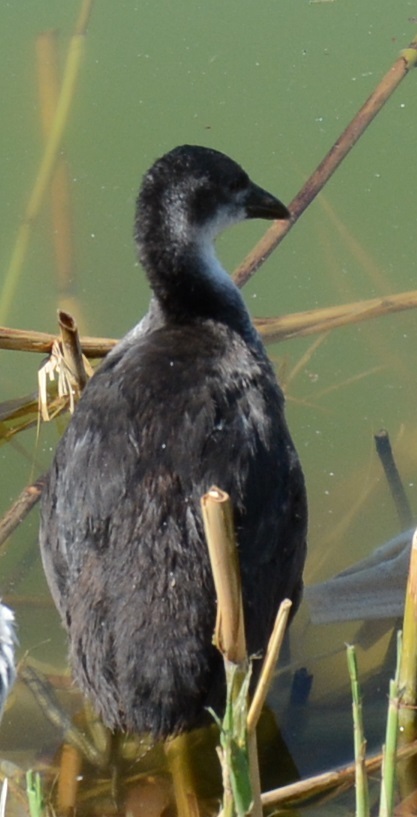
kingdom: Animalia
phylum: Chordata
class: Aves
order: Gruiformes
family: Rallidae
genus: Fulica
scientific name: Fulica atra
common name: Eurasian coot
